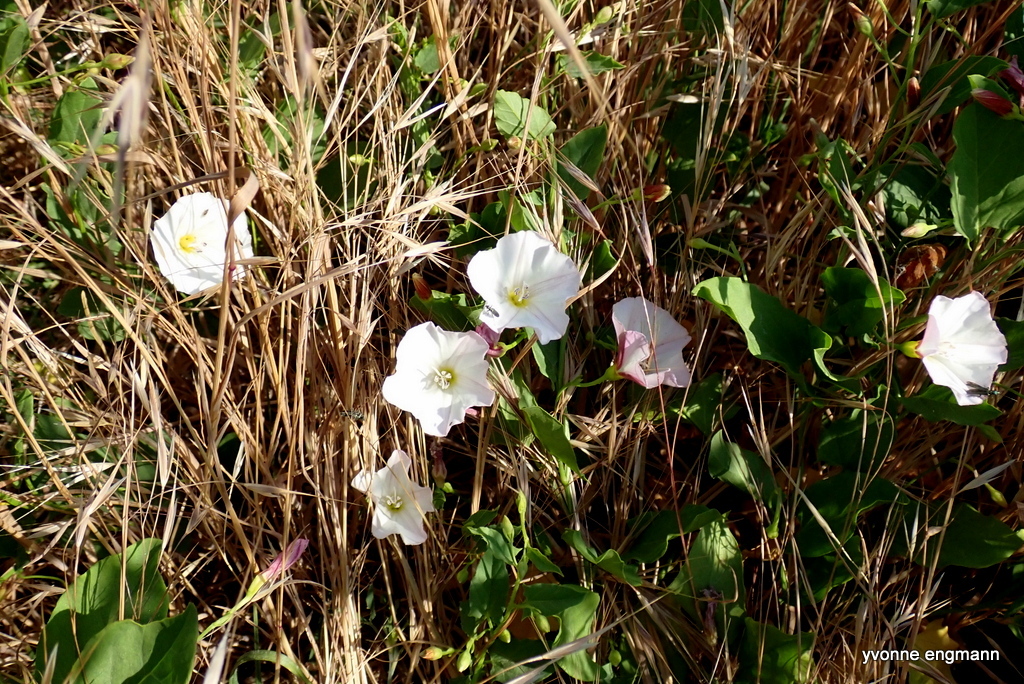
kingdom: Plantae
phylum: Tracheophyta
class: Magnoliopsida
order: Solanales
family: Convolvulaceae
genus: Convolvulus
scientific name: Convolvulus arvensis
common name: Field bindweed
